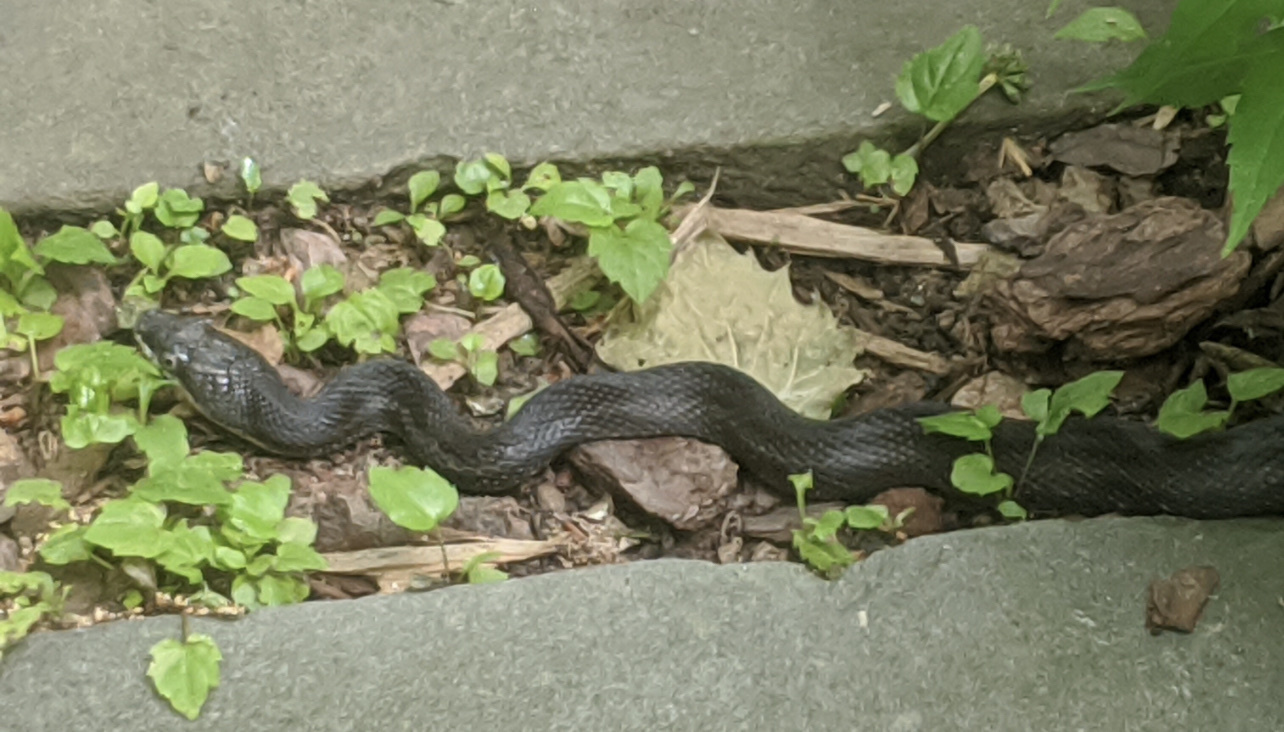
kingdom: Animalia
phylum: Chordata
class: Squamata
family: Colubridae
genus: Pantherophis
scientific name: Pantherophis alleghaniensis
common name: Eastern rat snake
